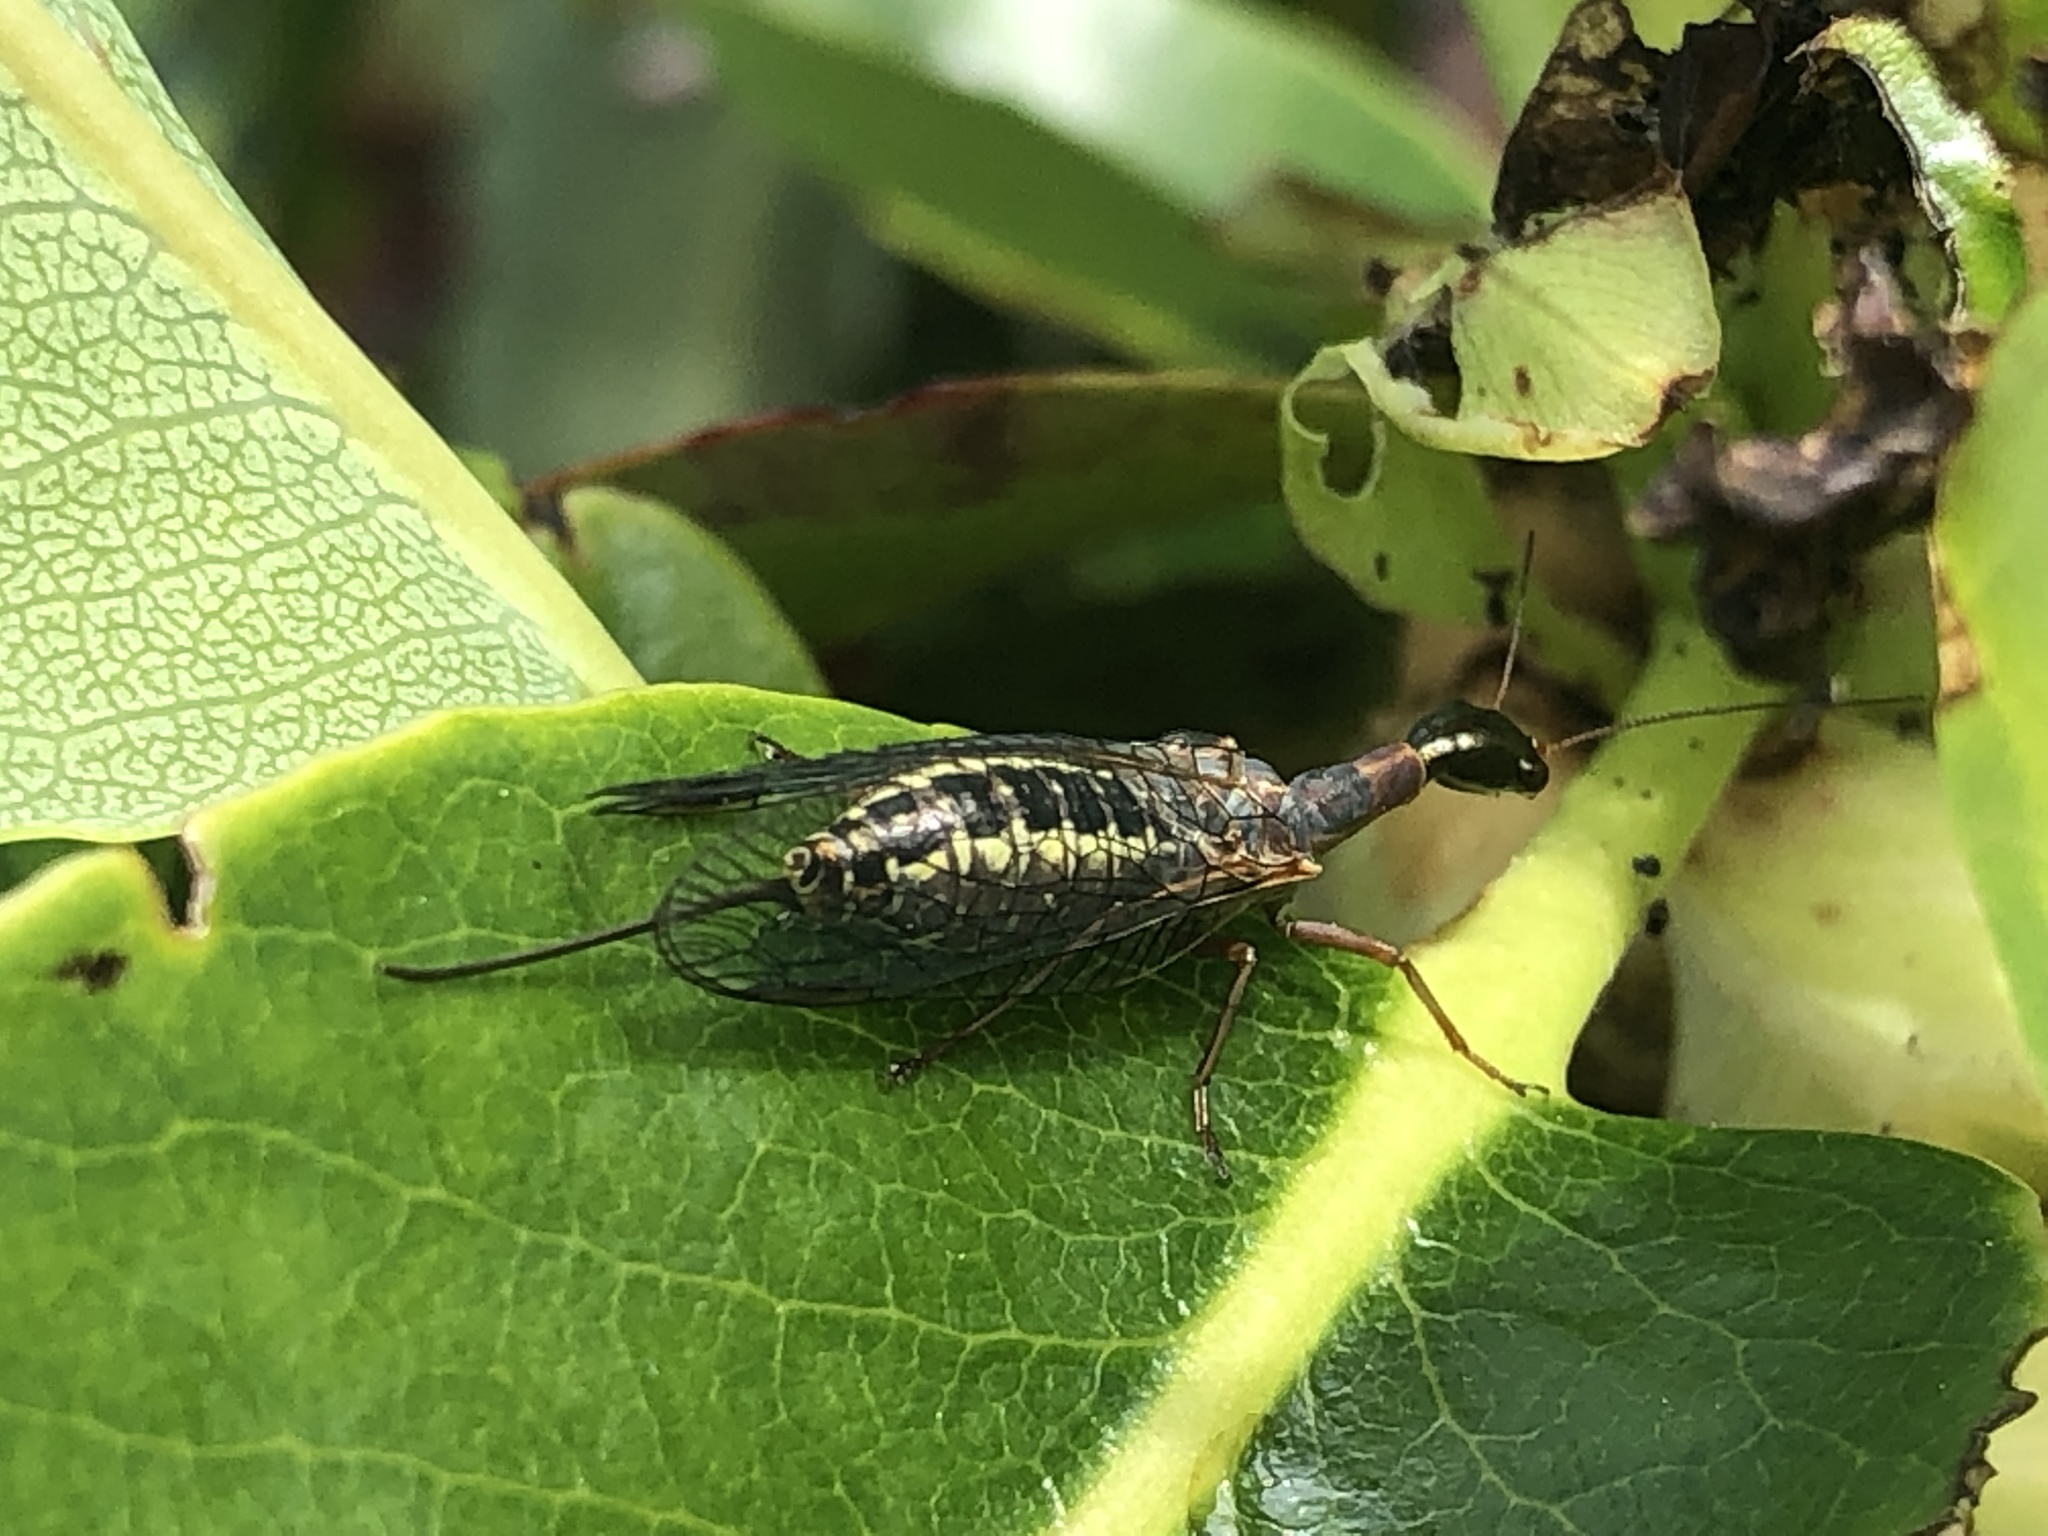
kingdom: Animalia
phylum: Arthropoda
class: Insecta
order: Raphidioptera
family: Raphidiidae
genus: Agulla
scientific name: Agulla adnixa
